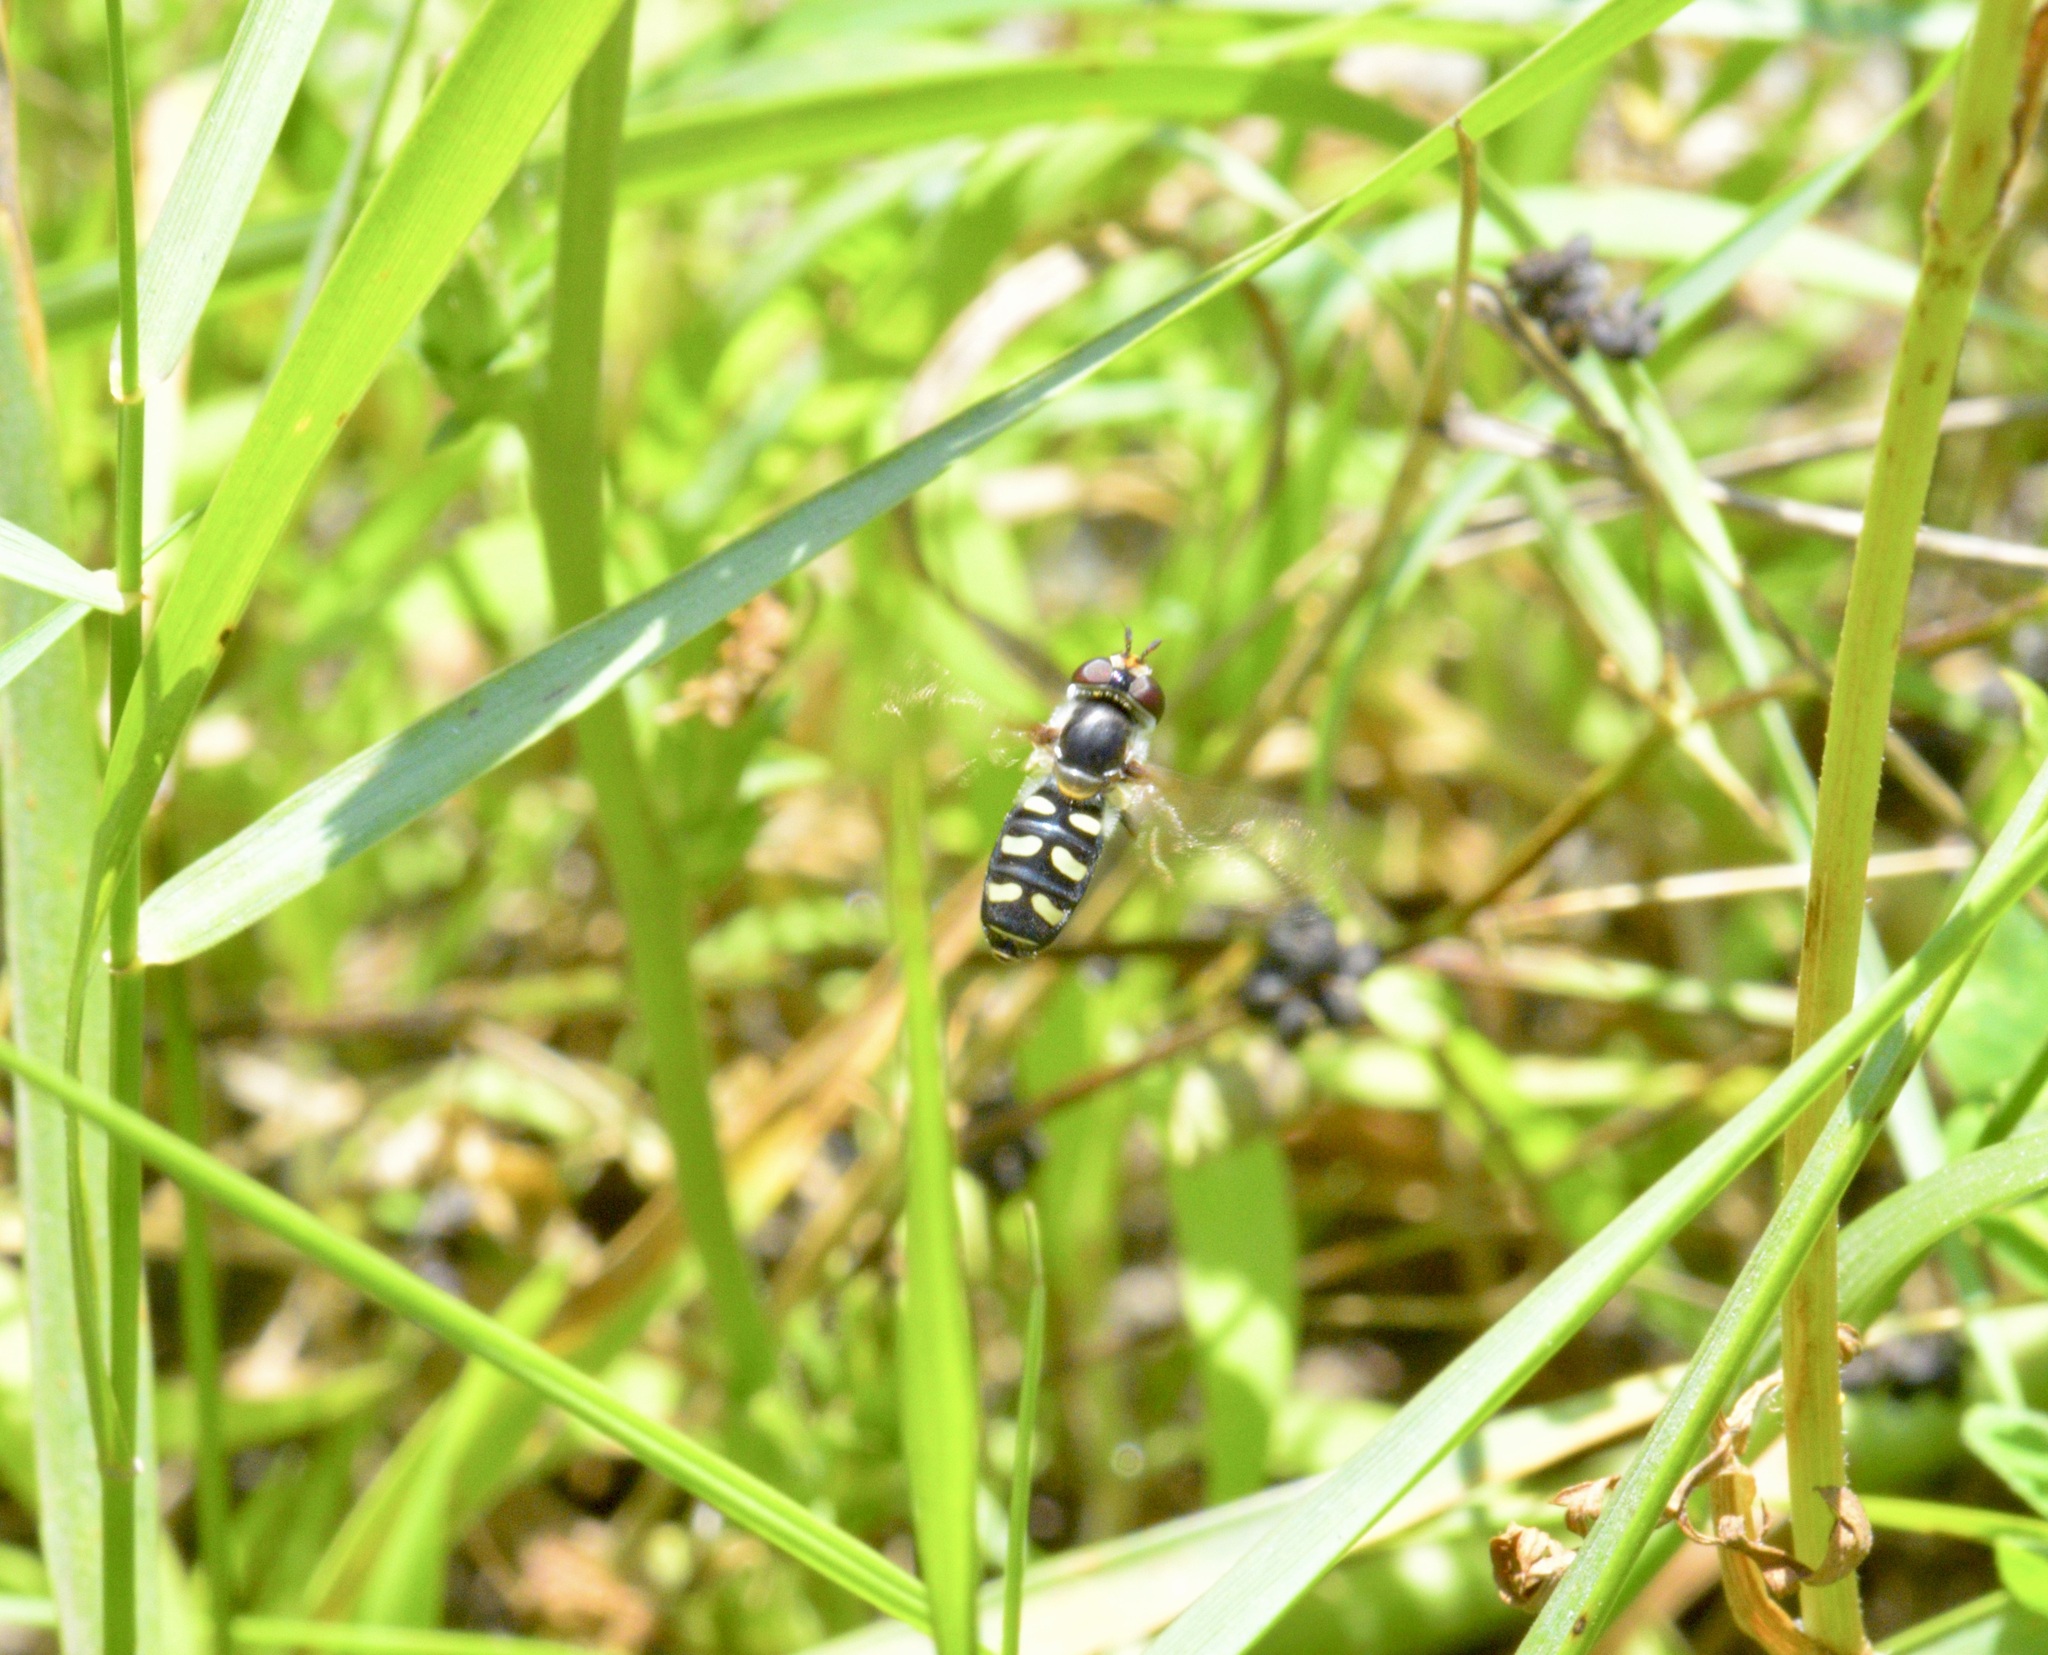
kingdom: Animalia
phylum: Arthropoda
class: Insecta
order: Diptera
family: Syrphidae
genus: Eupeodes
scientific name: Eupeodes perplexus
